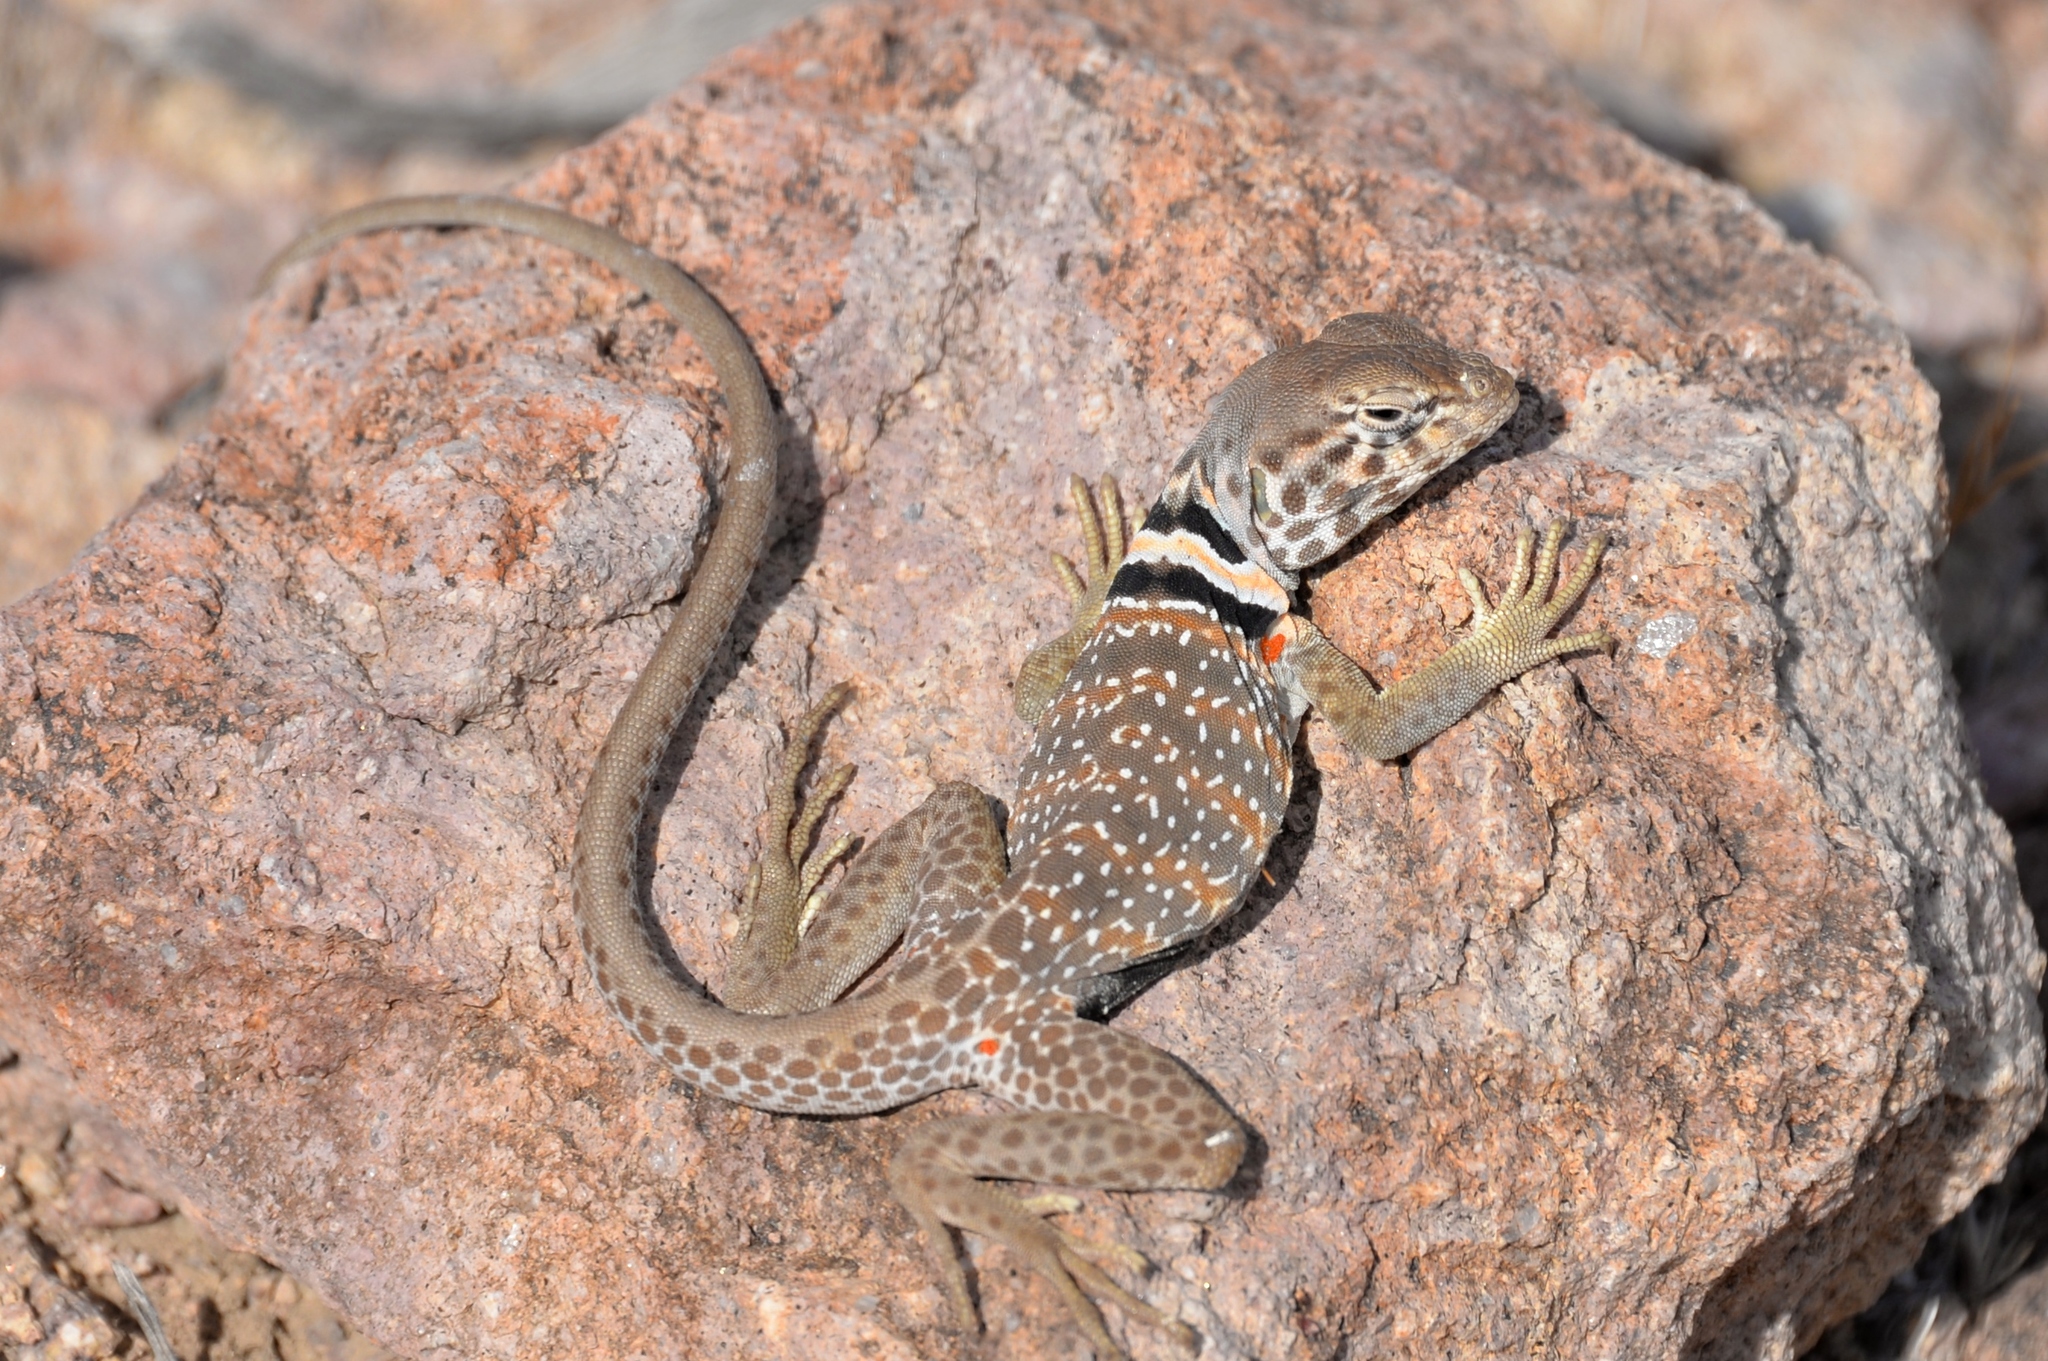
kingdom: Animalia
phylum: Chordata
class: Squamata
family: Crotaphytidae
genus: Crotaphytus
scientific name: Crotaphytus bicinctores
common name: Mojave black-collared lizard
